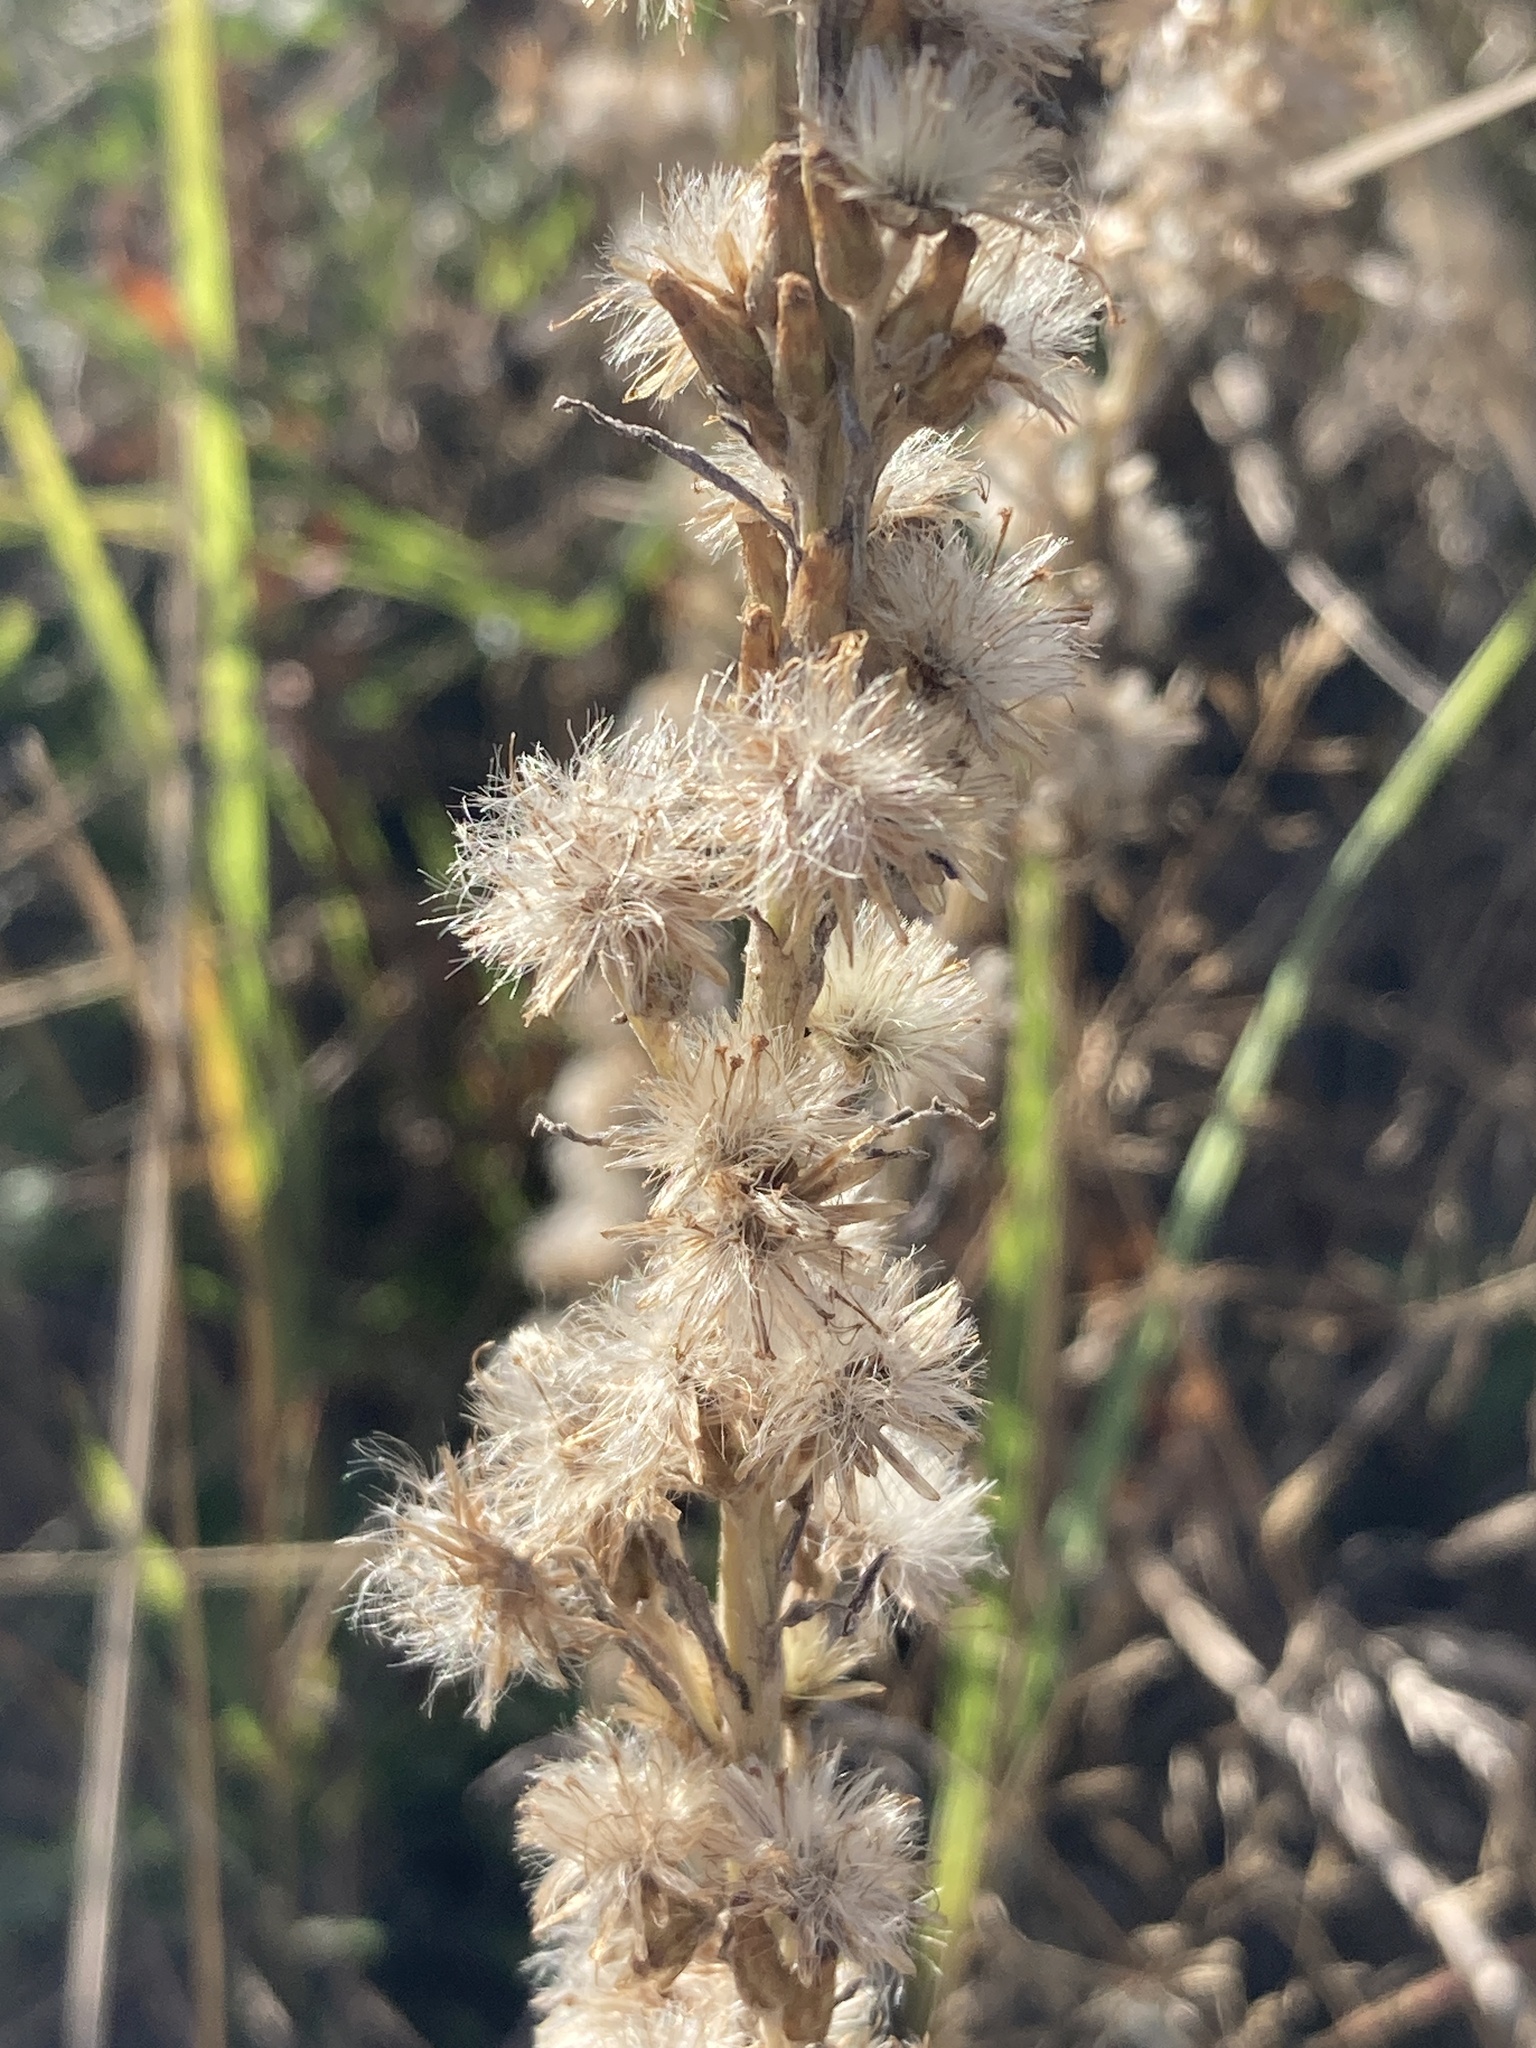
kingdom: Plantae
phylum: Tracheophyta
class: Magnoliopsida
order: Asterales
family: Asteraceae
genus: Omalotheca
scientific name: Omalotheca sylvatica
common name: Heath cudweed
